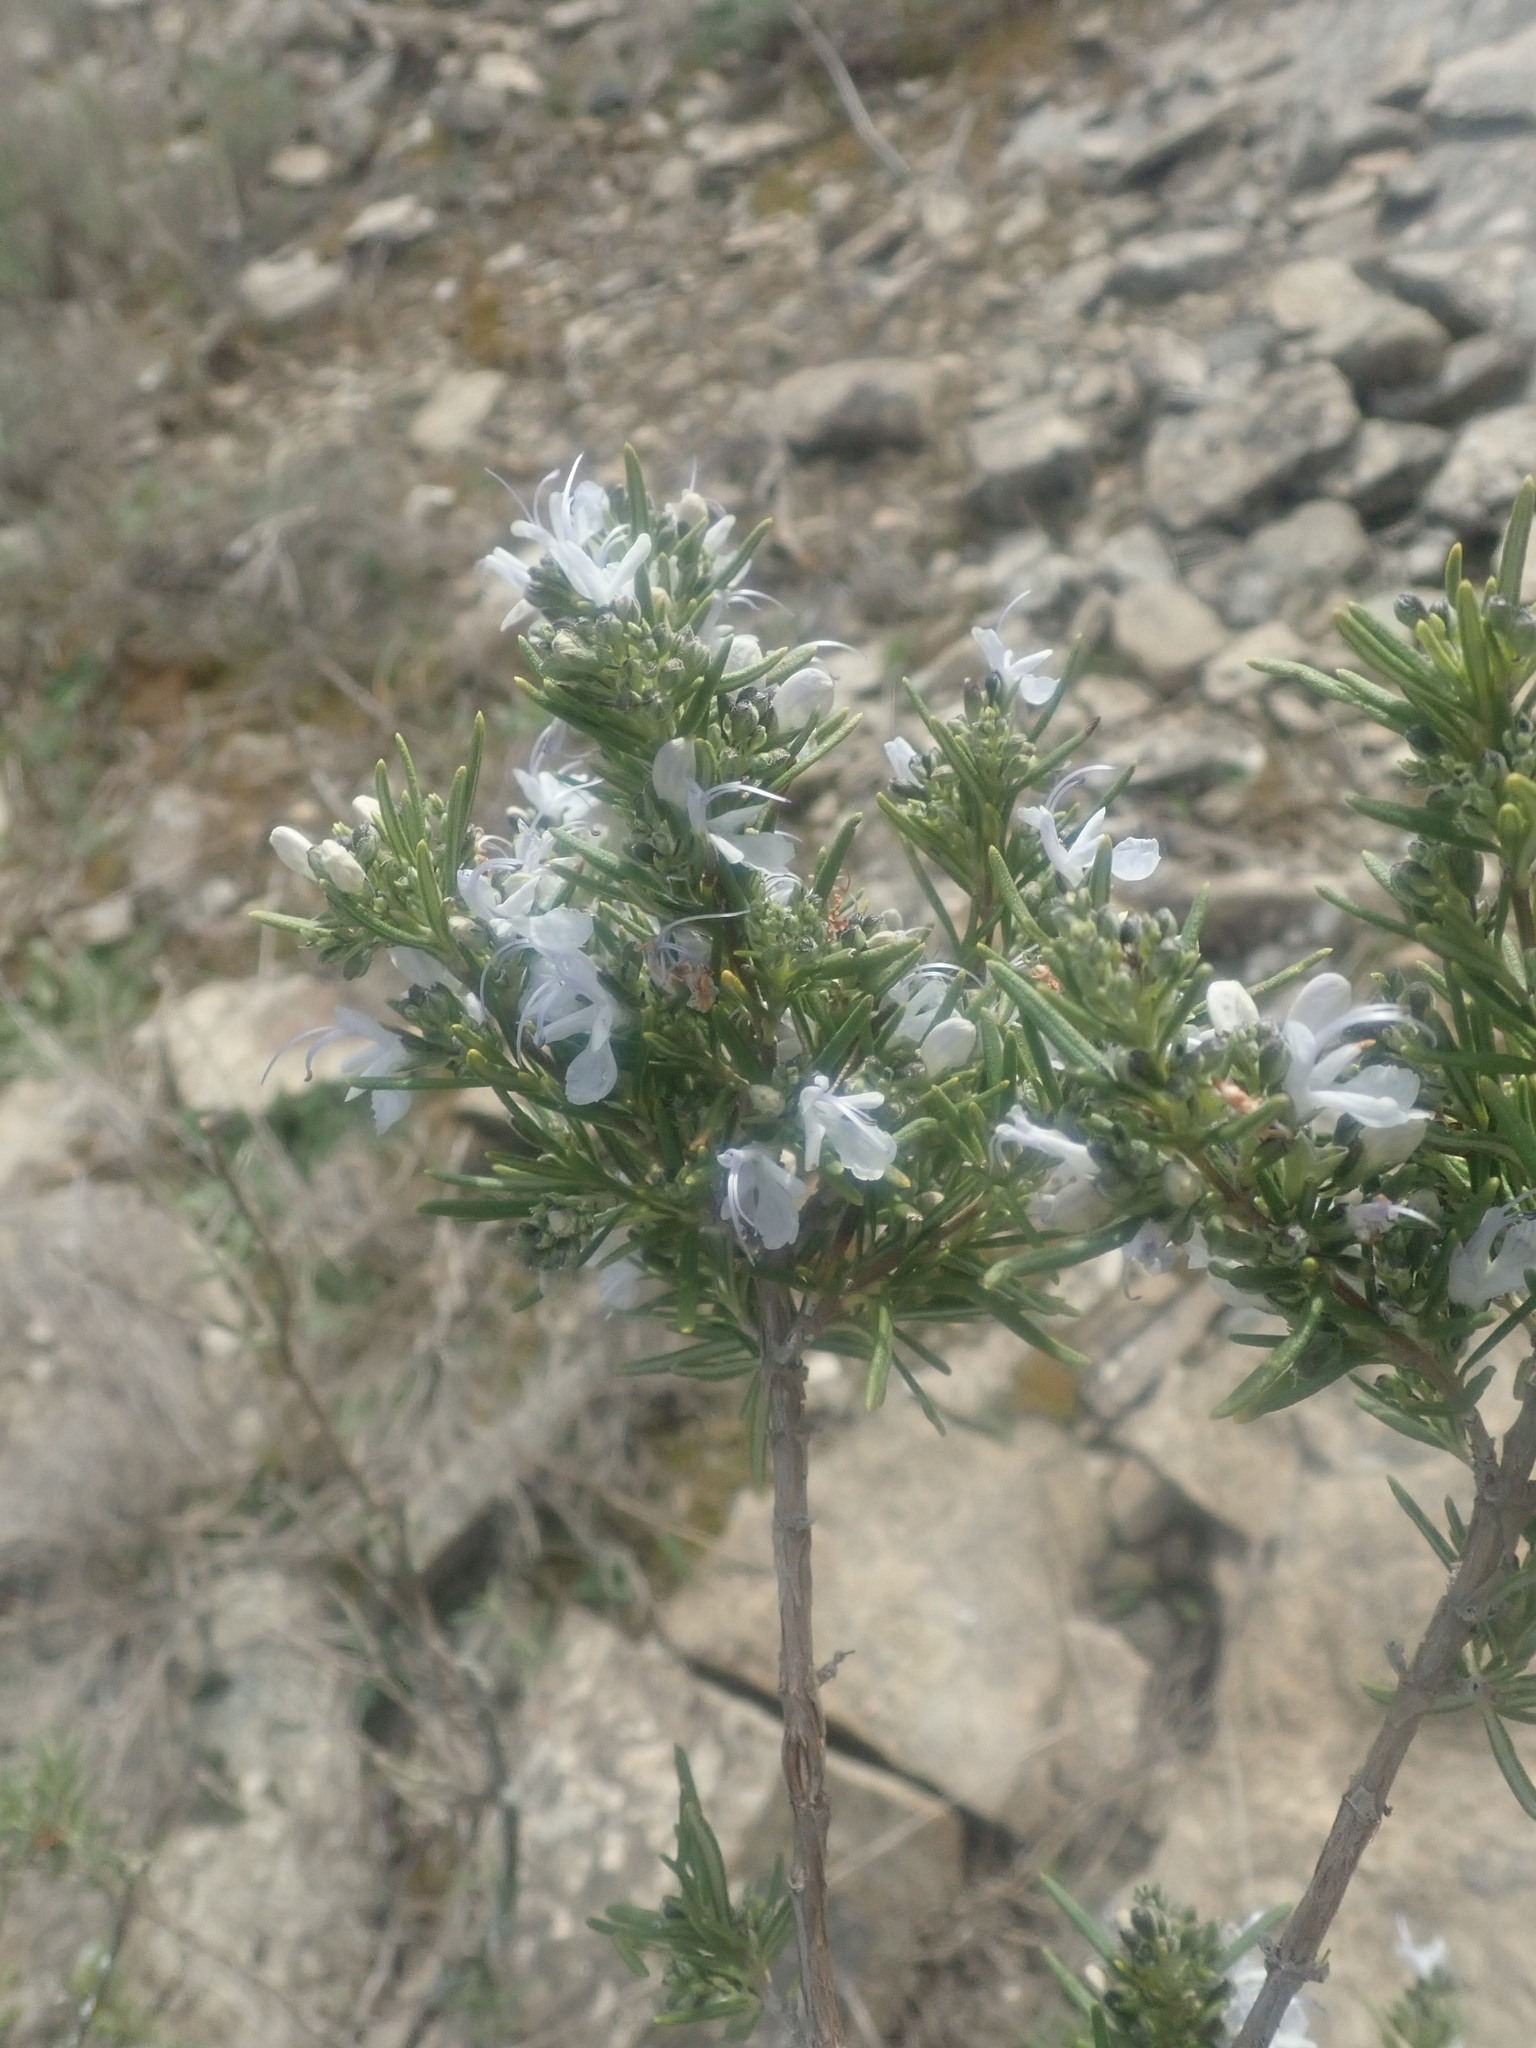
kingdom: Plantae
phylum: Tracheophyta
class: Magnoliopsida
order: Lamiales
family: Lamiaceae
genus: Salvia
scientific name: Salvia rosmarinus
